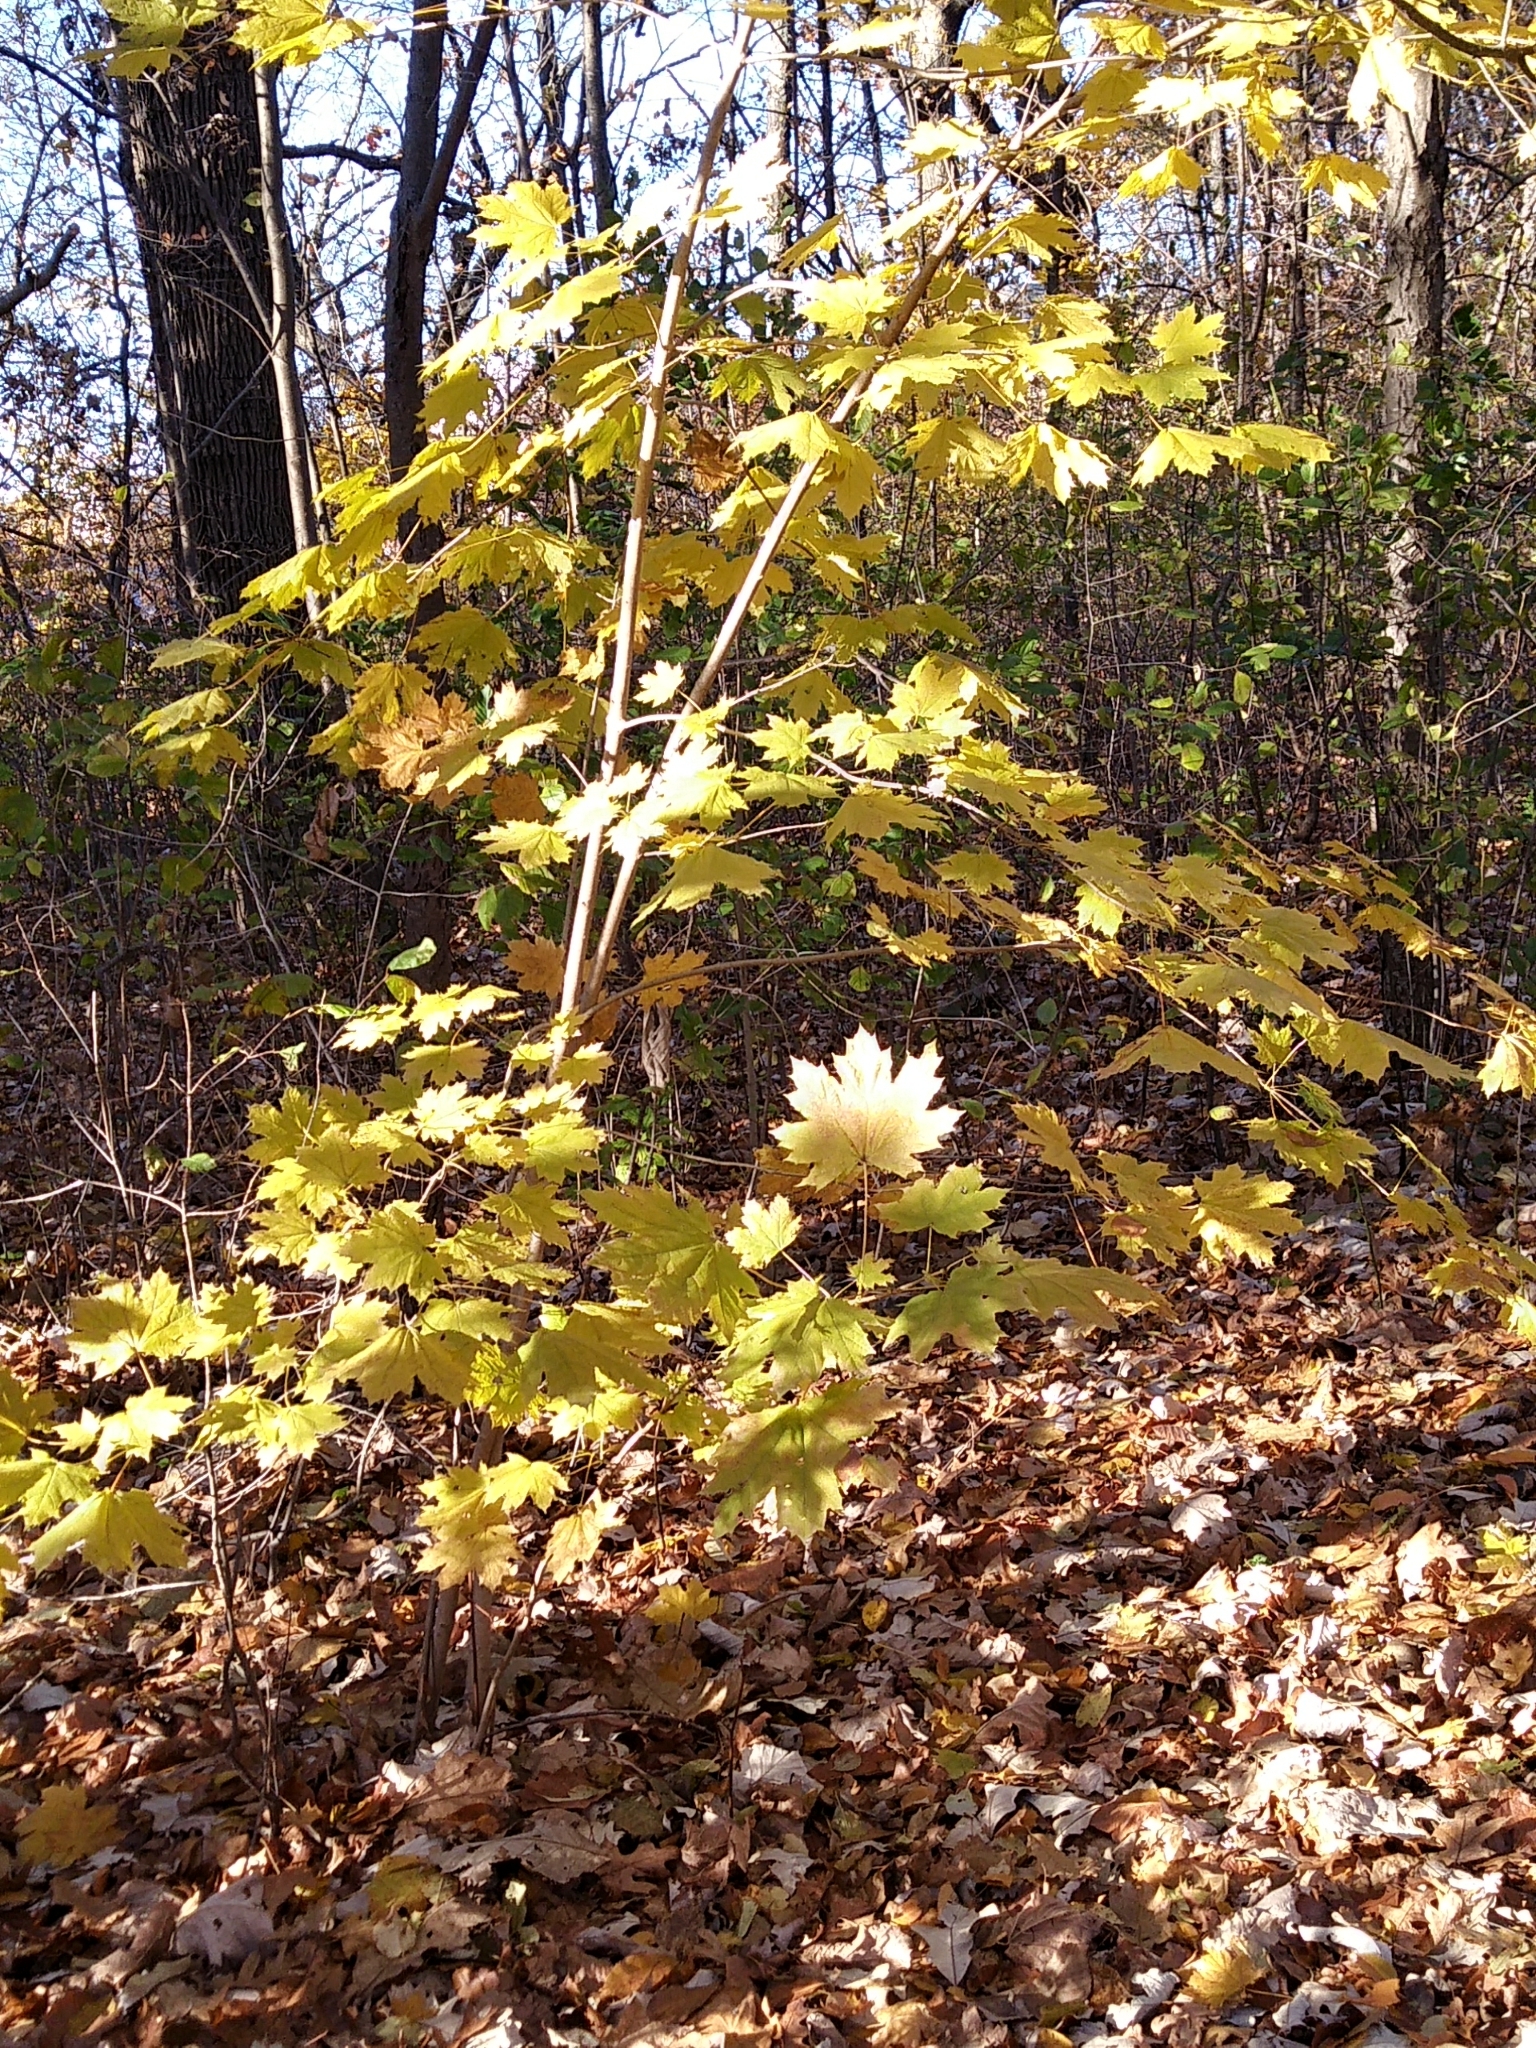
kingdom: Plantae
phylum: Tracheophyta
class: Magnoliopsida
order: Sapindales
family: Sapindaceae
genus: Acer
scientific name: Acer platanoides
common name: Norway maple
